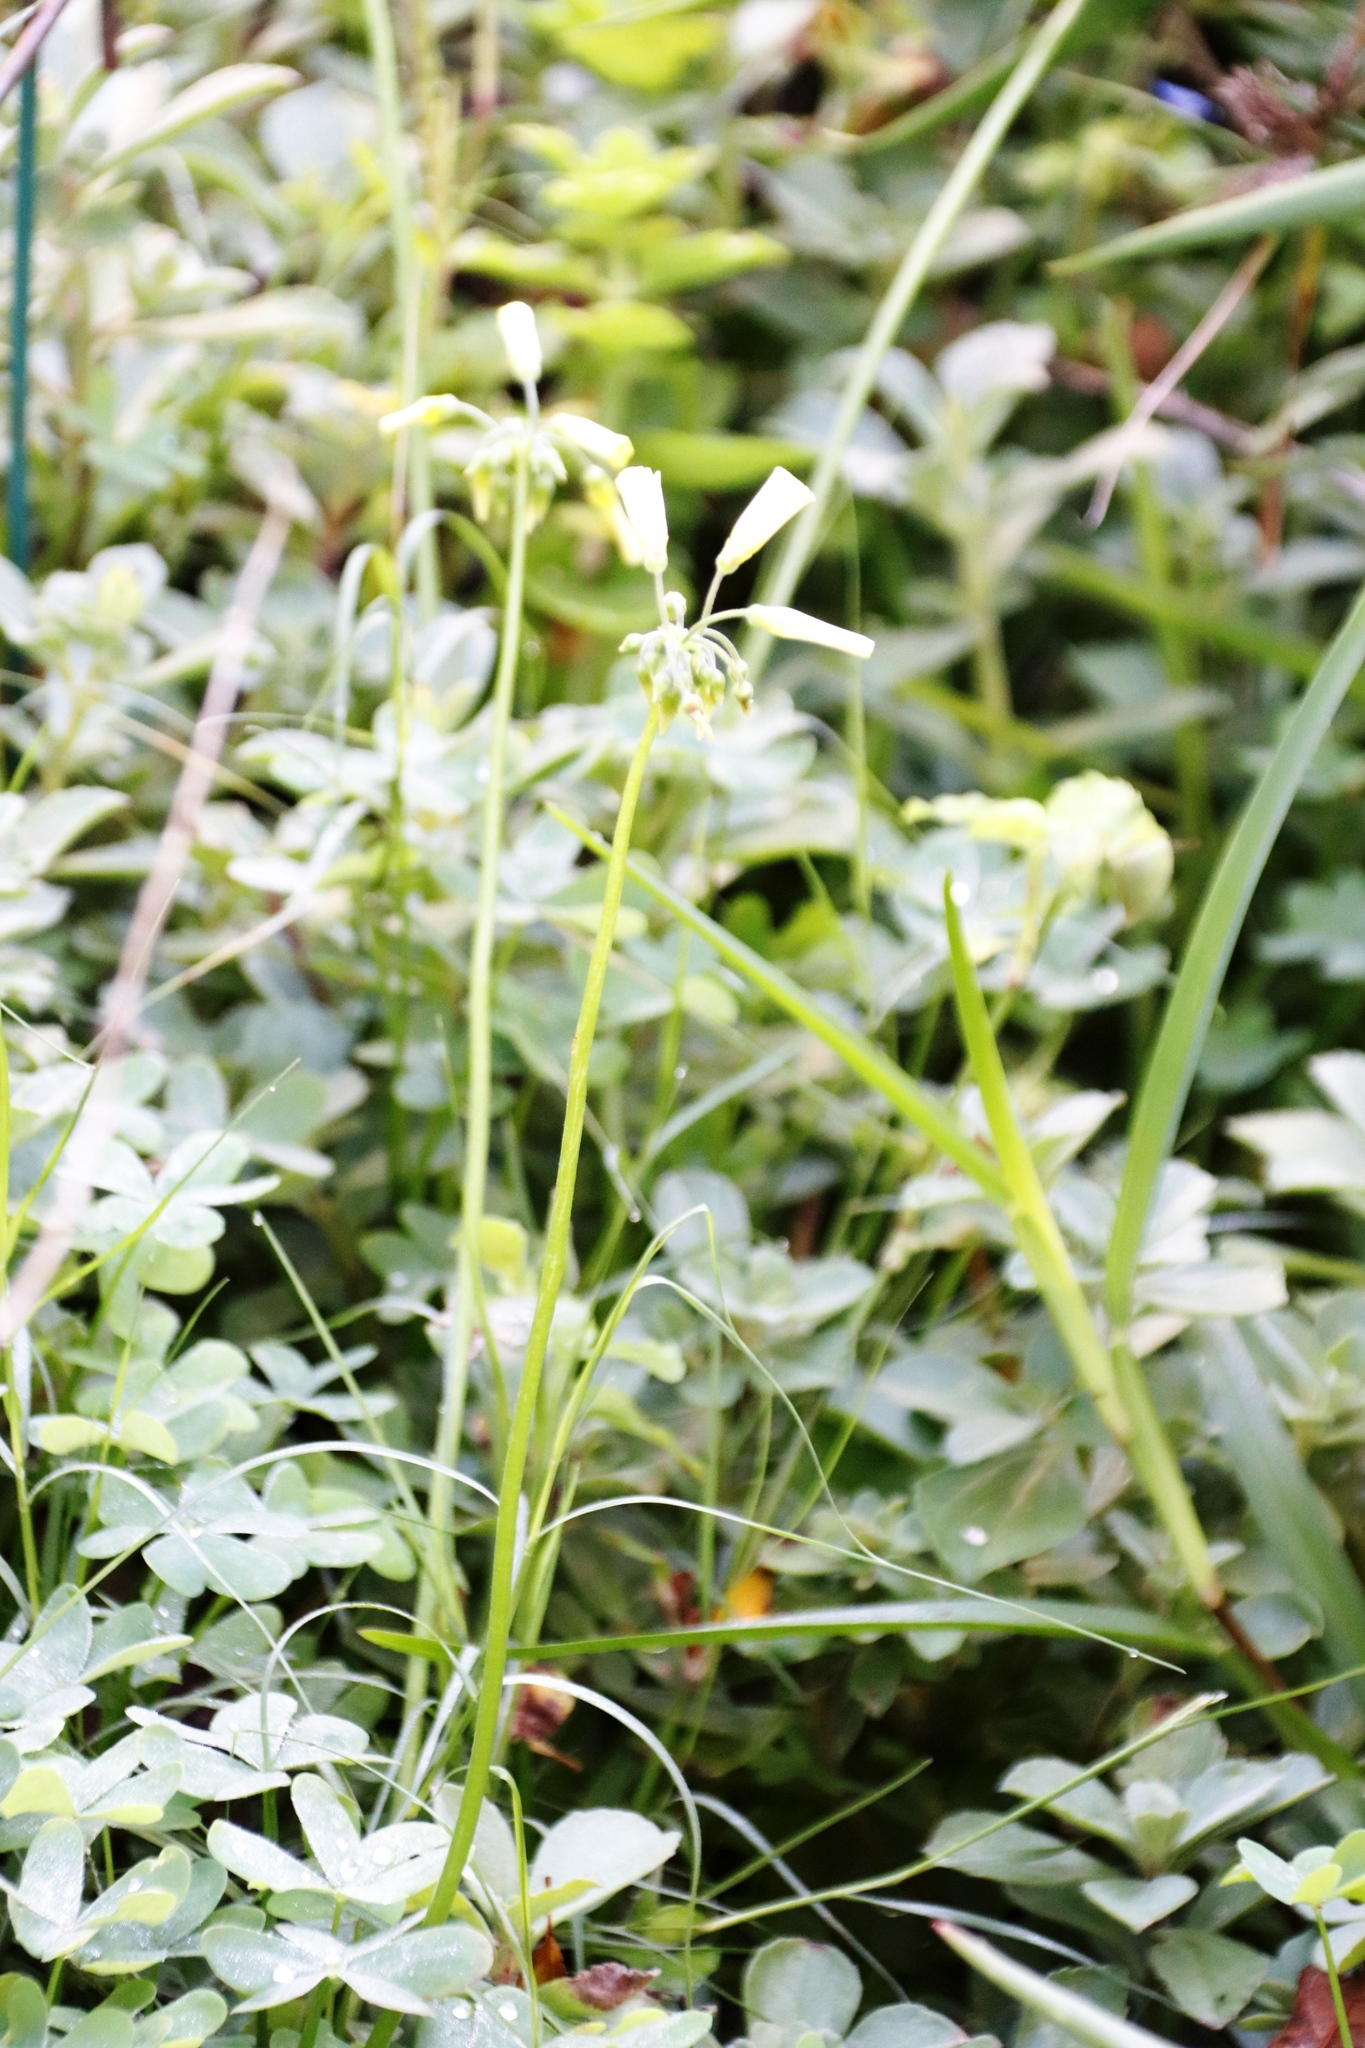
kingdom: Plantae
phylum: Tracheophyta
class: Magnoliopsida
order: Oxalidales
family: Oxalidaceae
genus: Oxalis
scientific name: Oxalis pes-caprae
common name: Bermuda-buttercup
